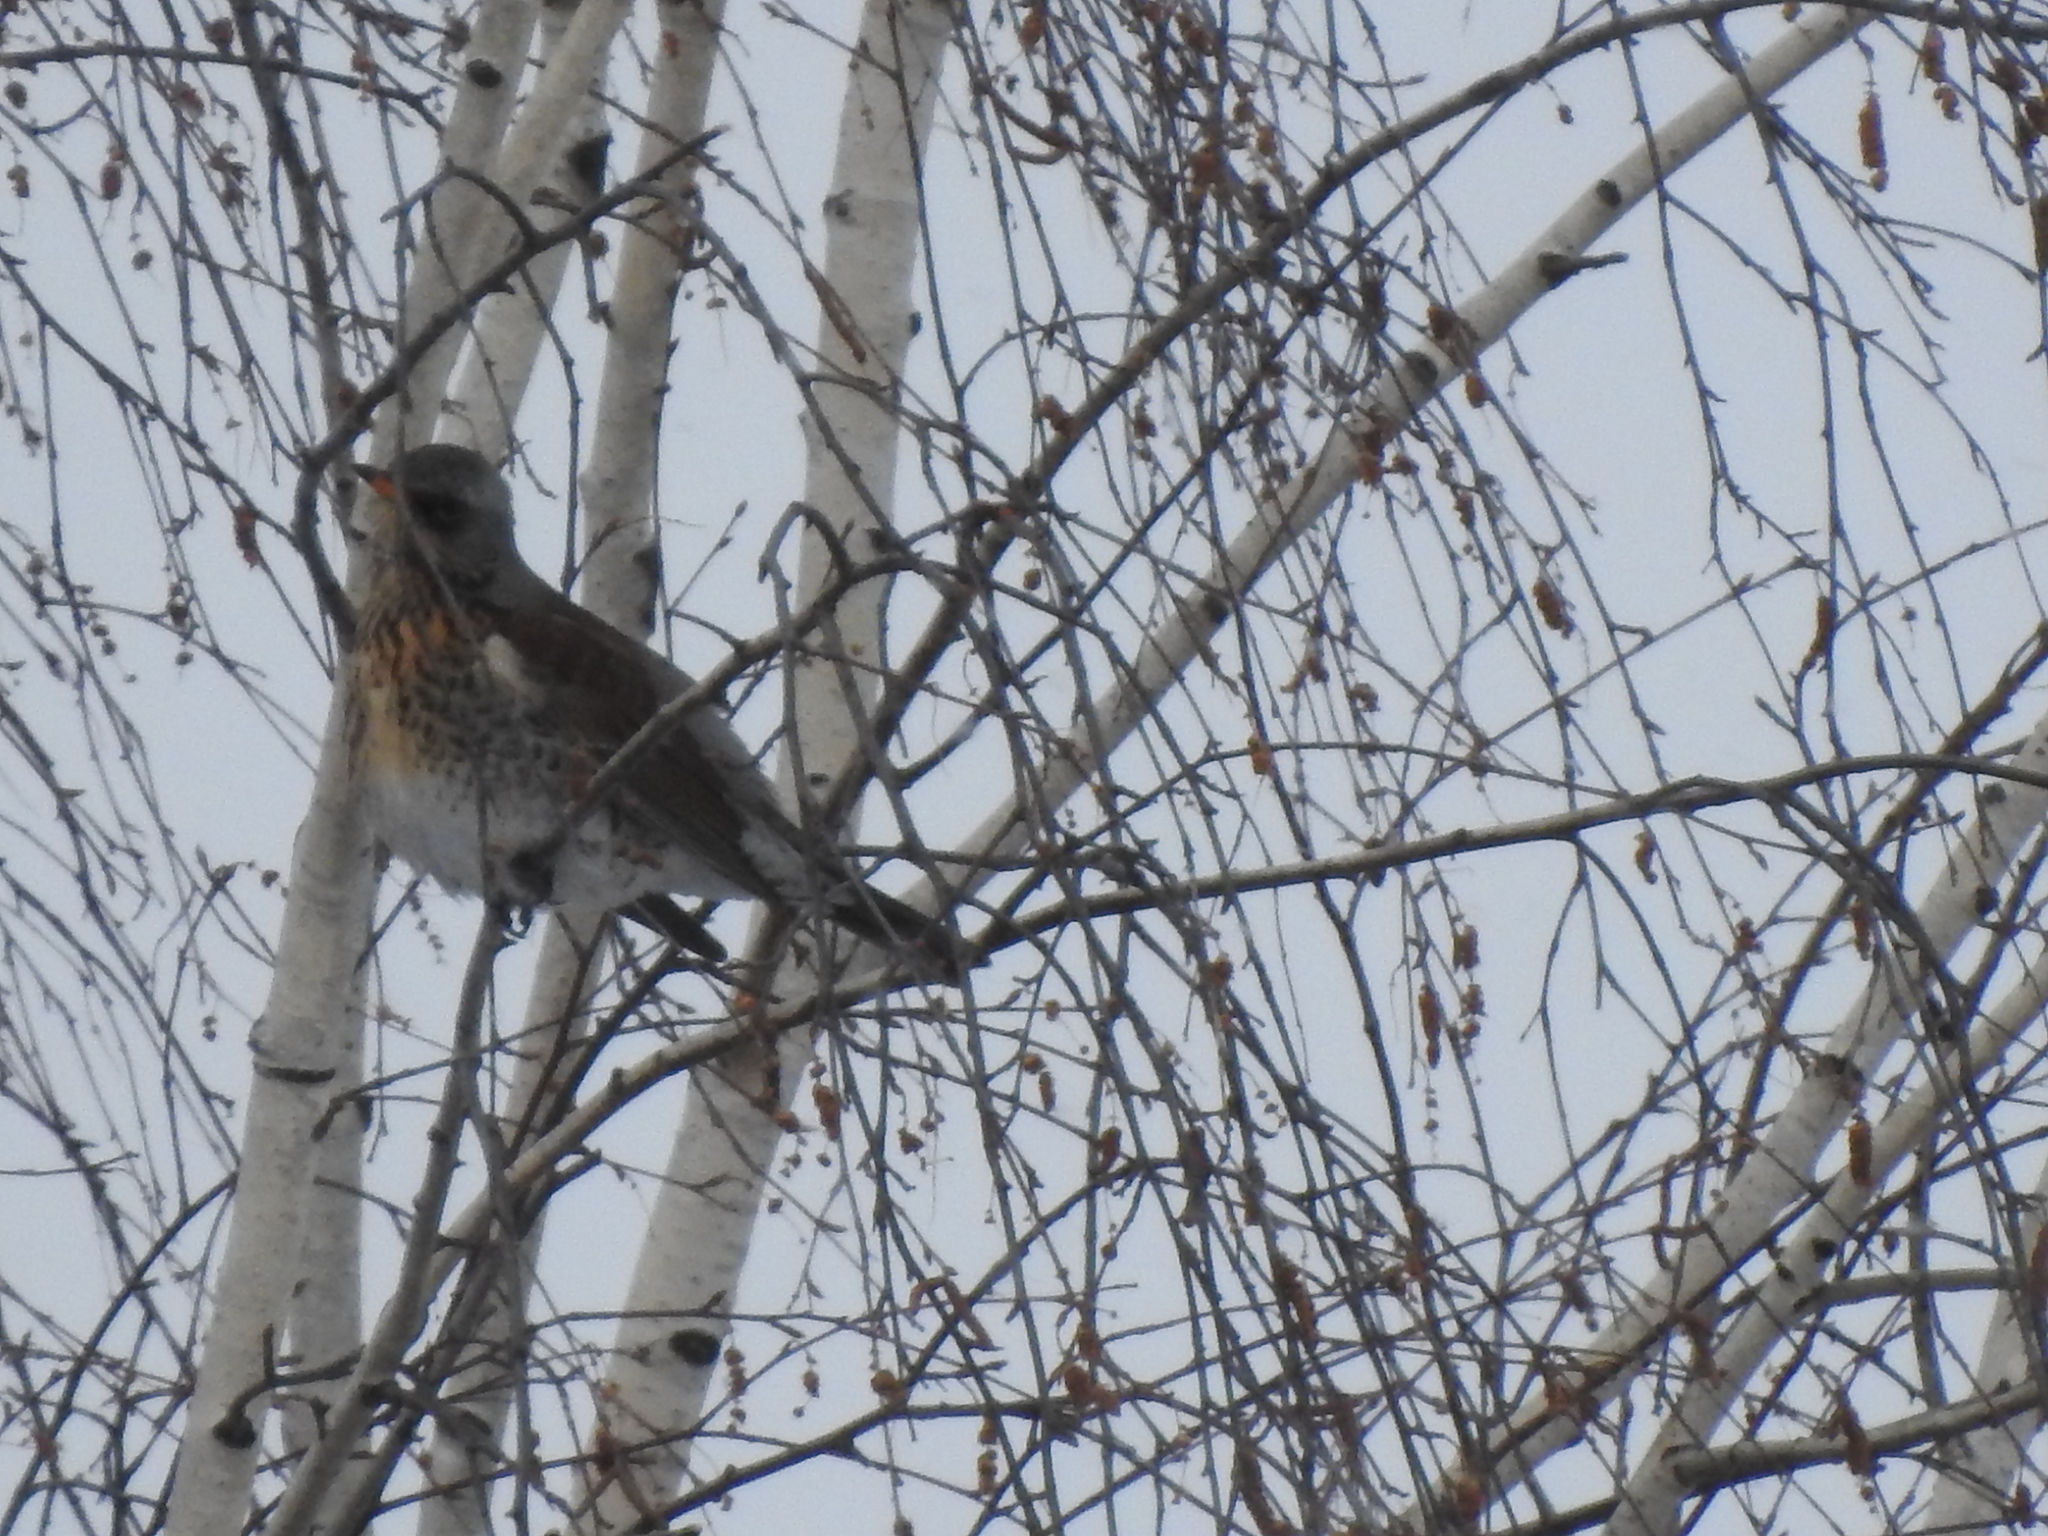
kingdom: Animalia
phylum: Chordata
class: Aves
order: Passeriformes
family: Turdidae
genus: Turdus
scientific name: Turdus pilaris
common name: Fieldfare
